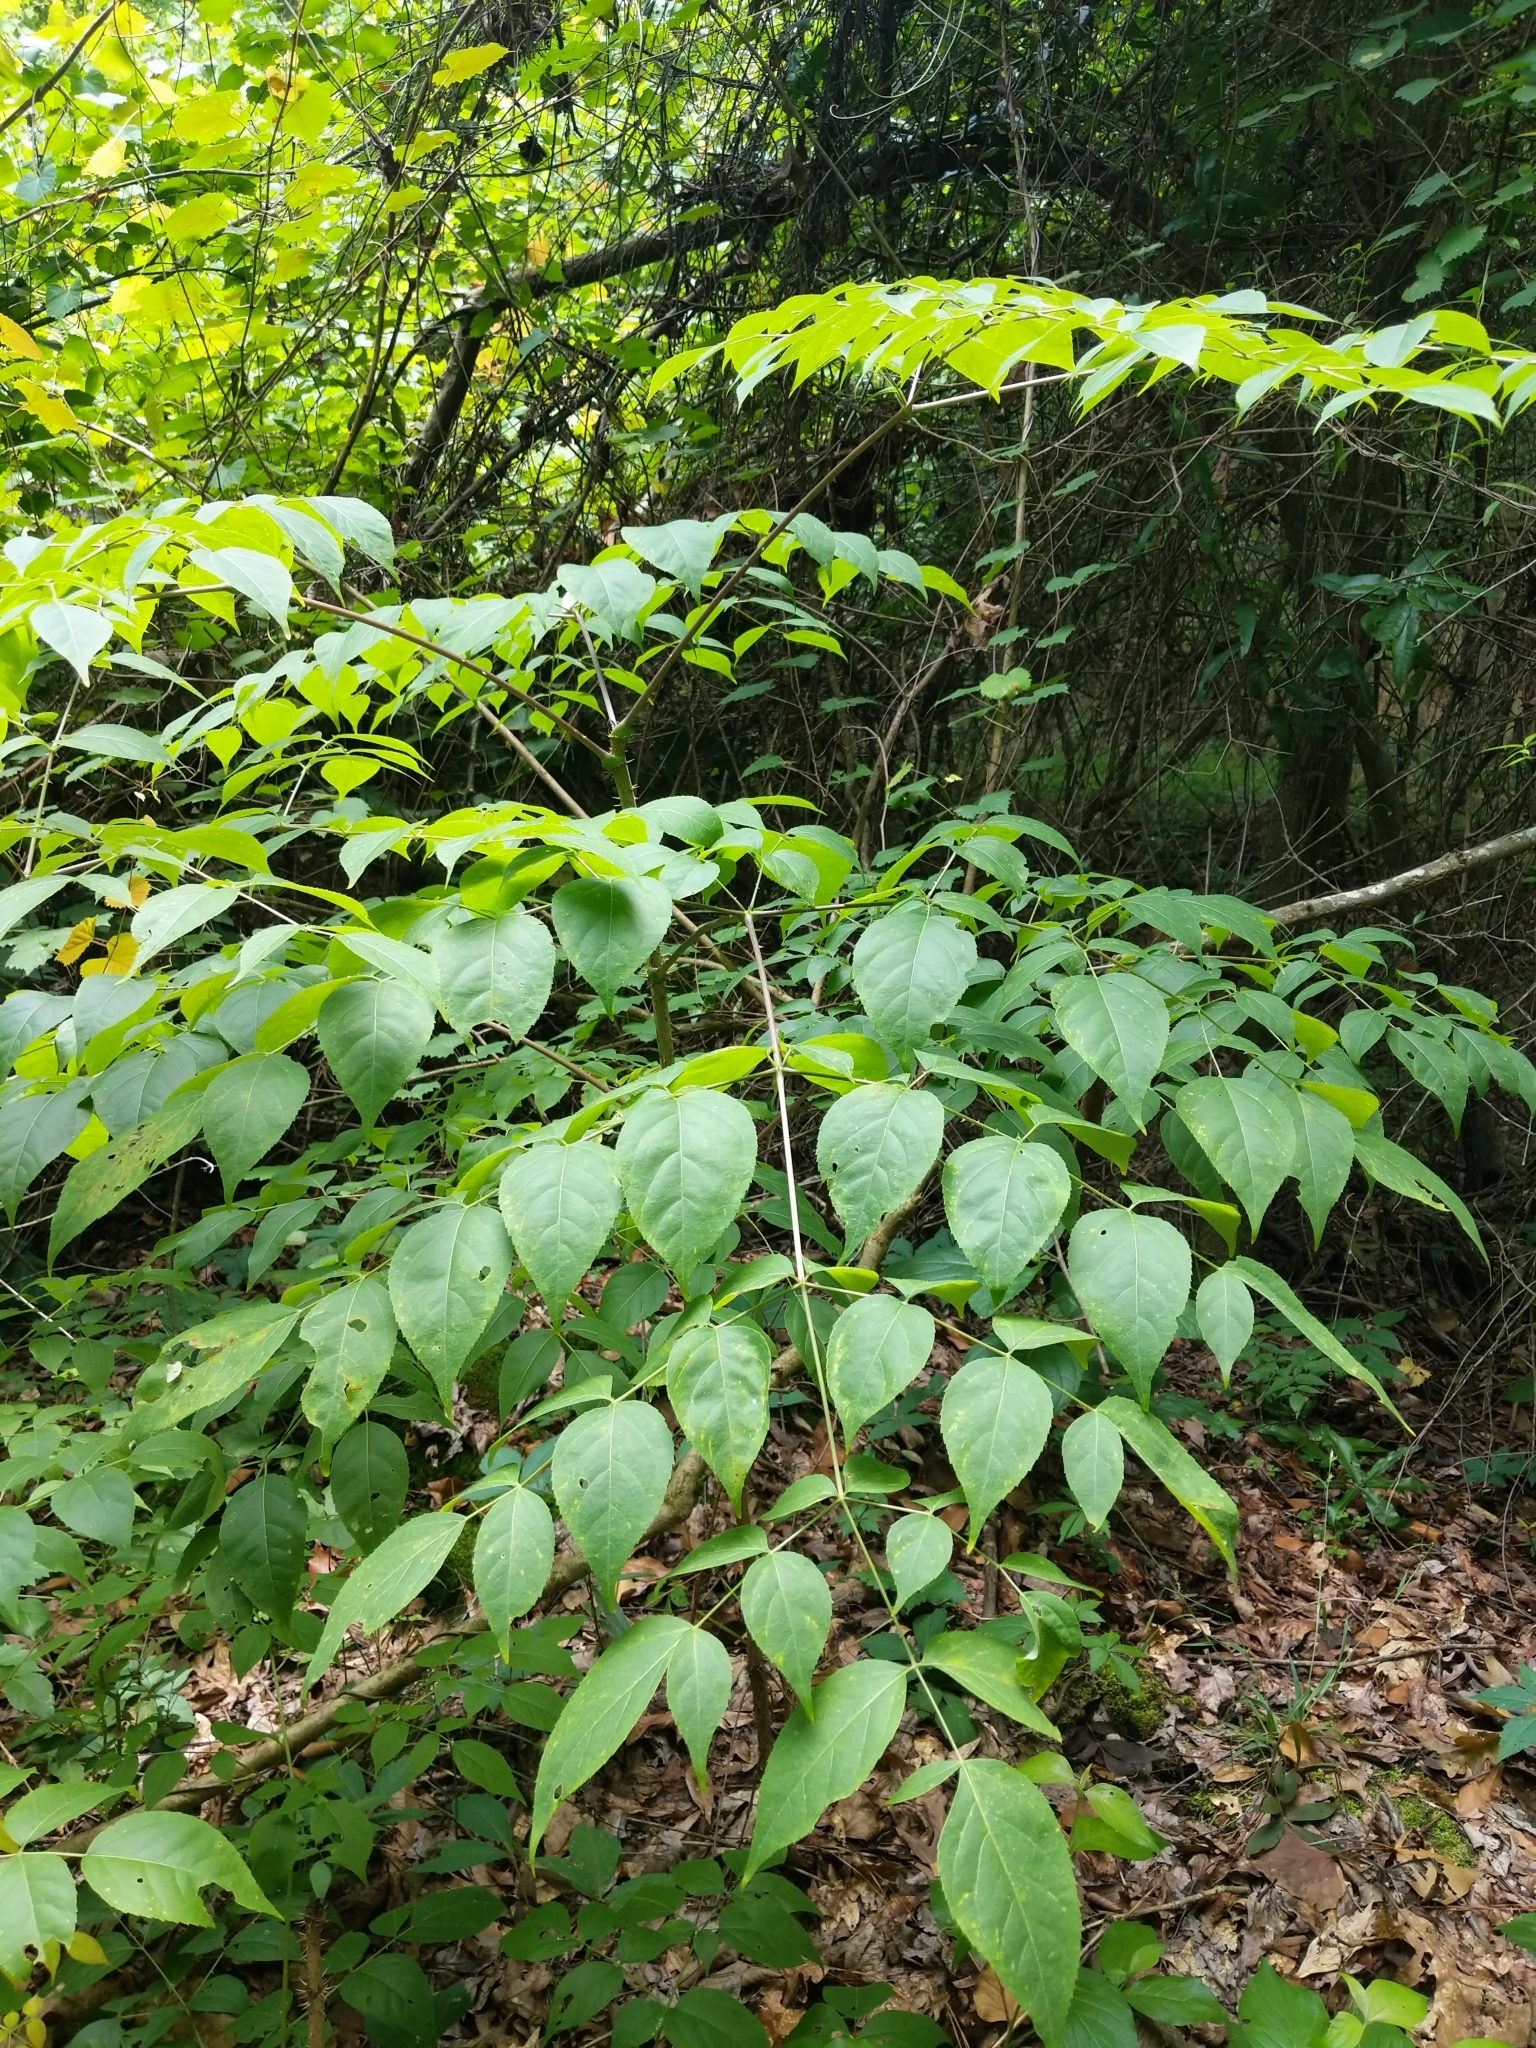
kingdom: Plantae
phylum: Tracheophyta
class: Magnoliopsida
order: Apiales
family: Araliaceae
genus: Aralia
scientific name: Aralia spinosa
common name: Hercules'-club
